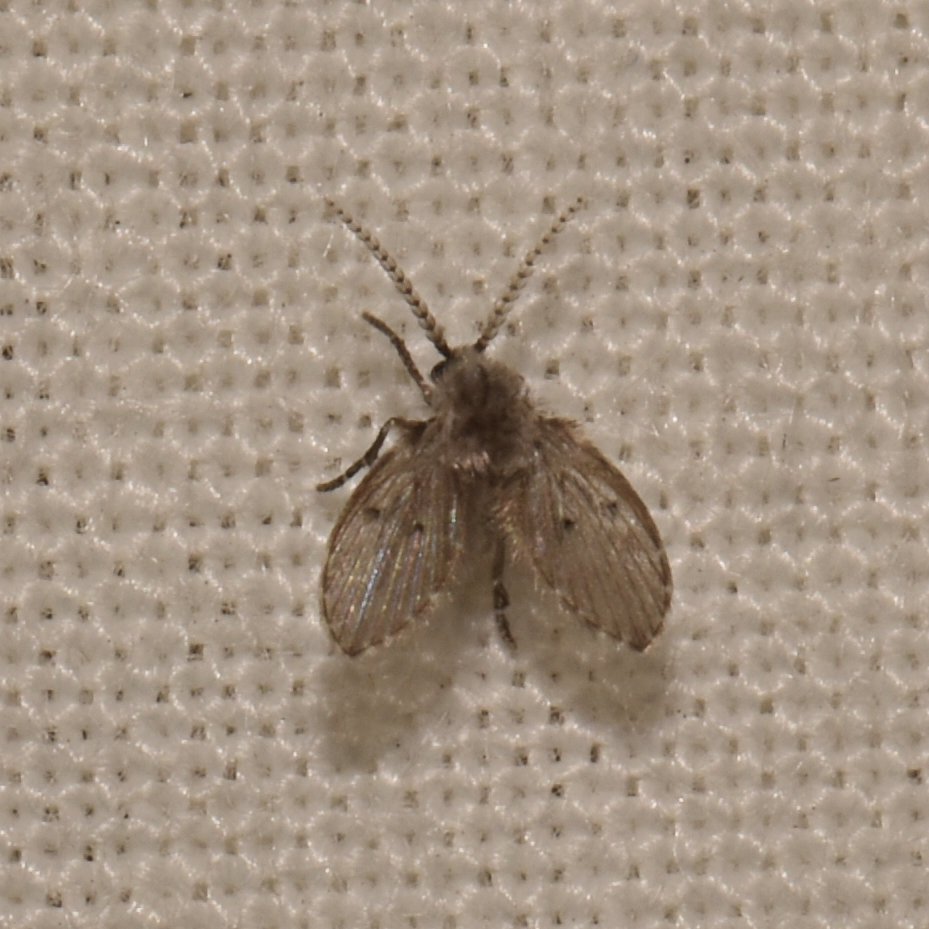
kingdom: Animalia
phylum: Arthropoda
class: Insecta
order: Diptera
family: Psychodidae
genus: Clogmia
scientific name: Clogmia albipunctatus
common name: White-spotted moth fly
